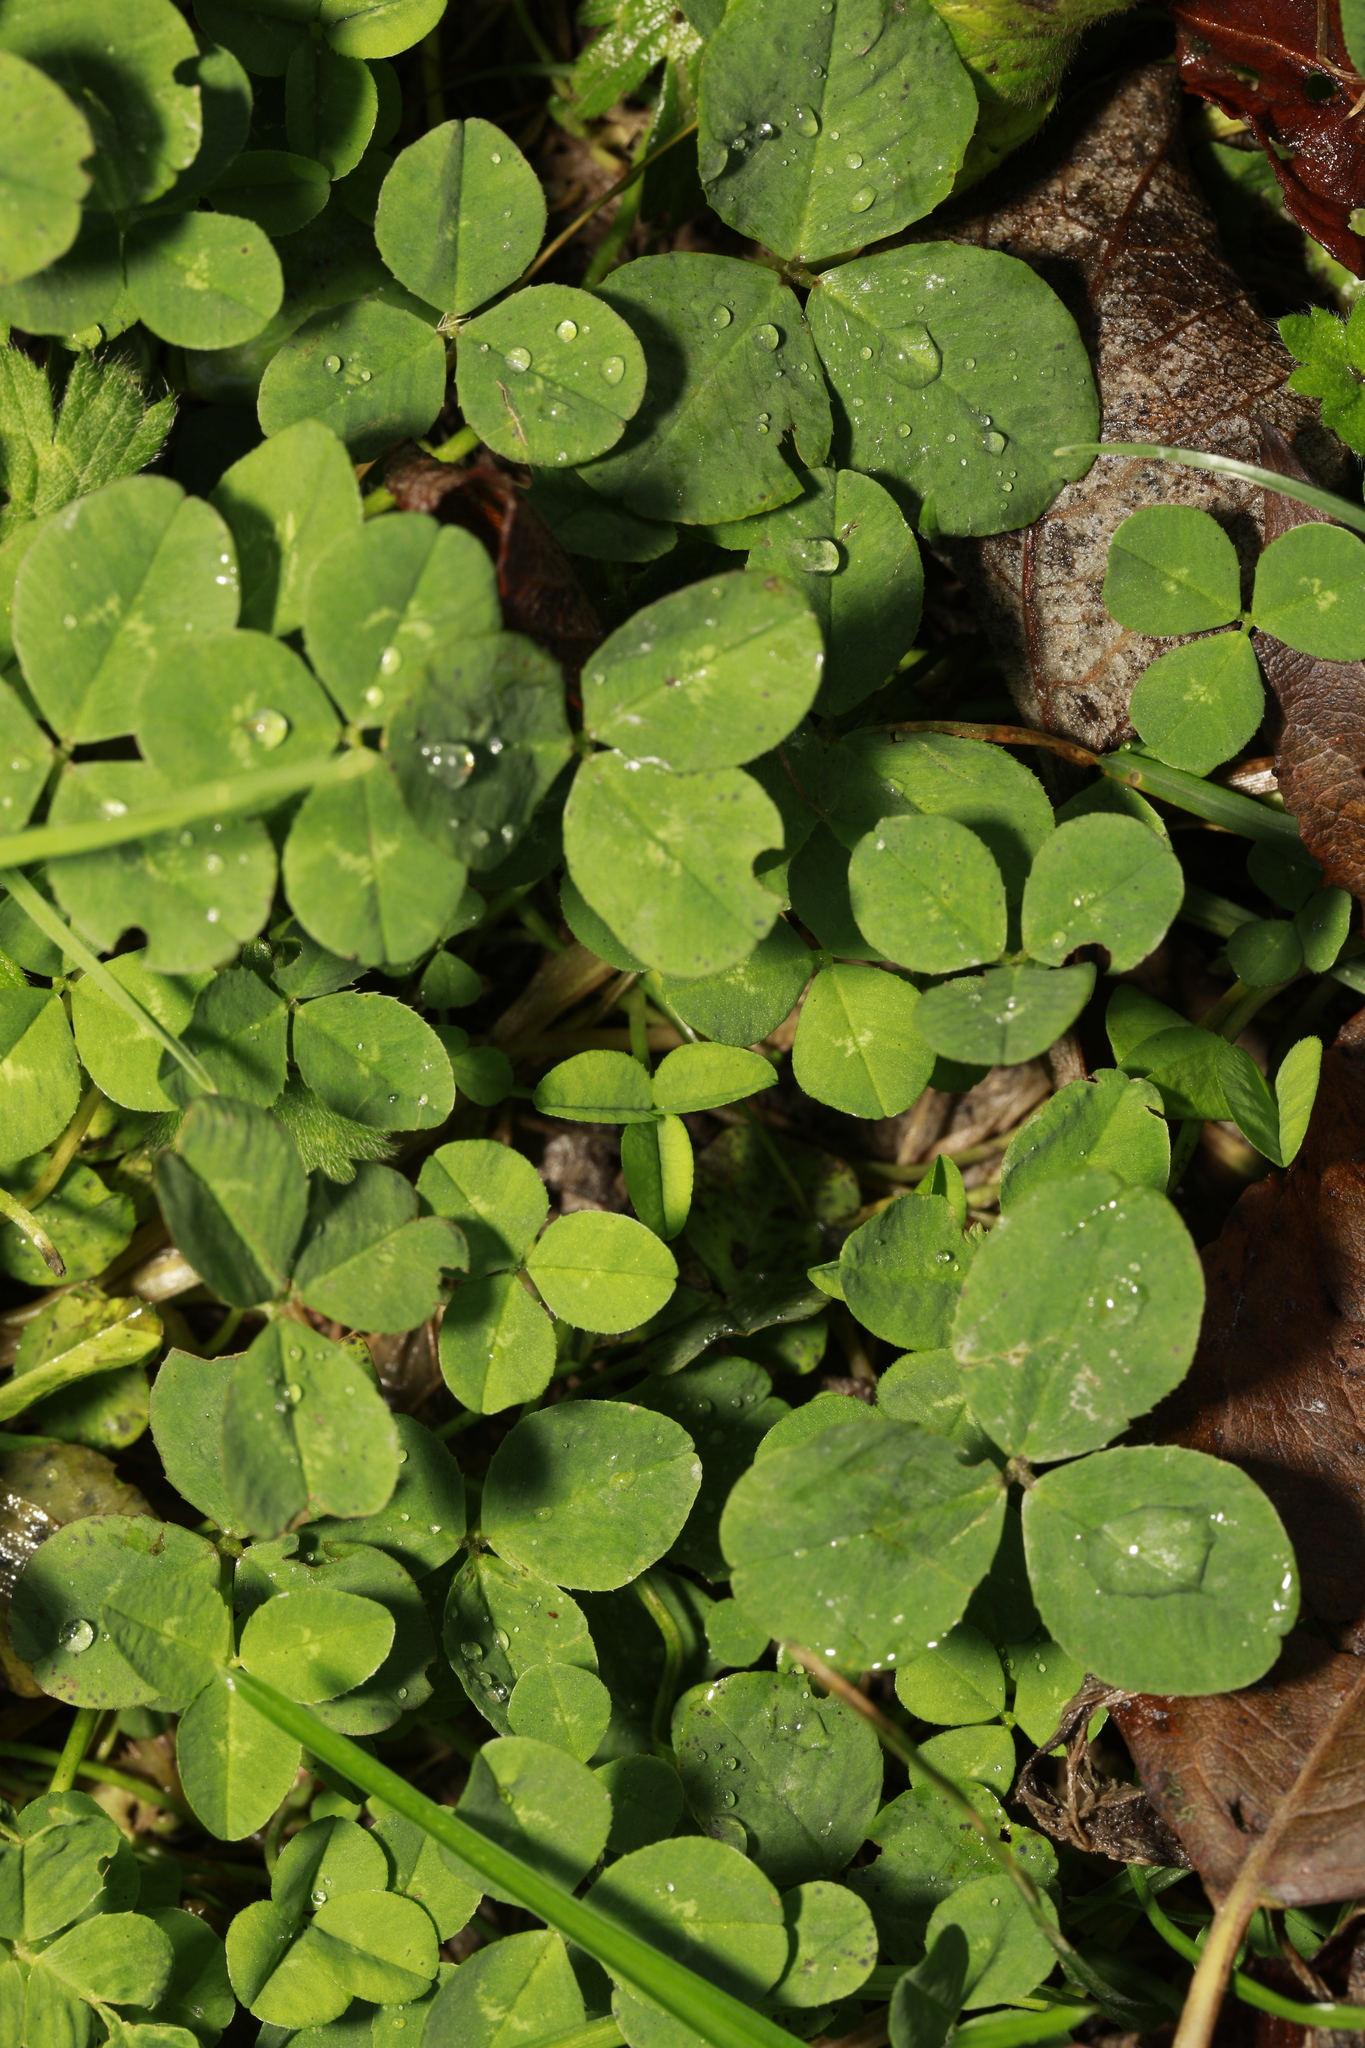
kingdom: Plantae
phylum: Tracheophyta
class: Magnoliopsida
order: Fabales
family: Fabaceae
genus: Trifolium
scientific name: Trifolium repens
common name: White clover
